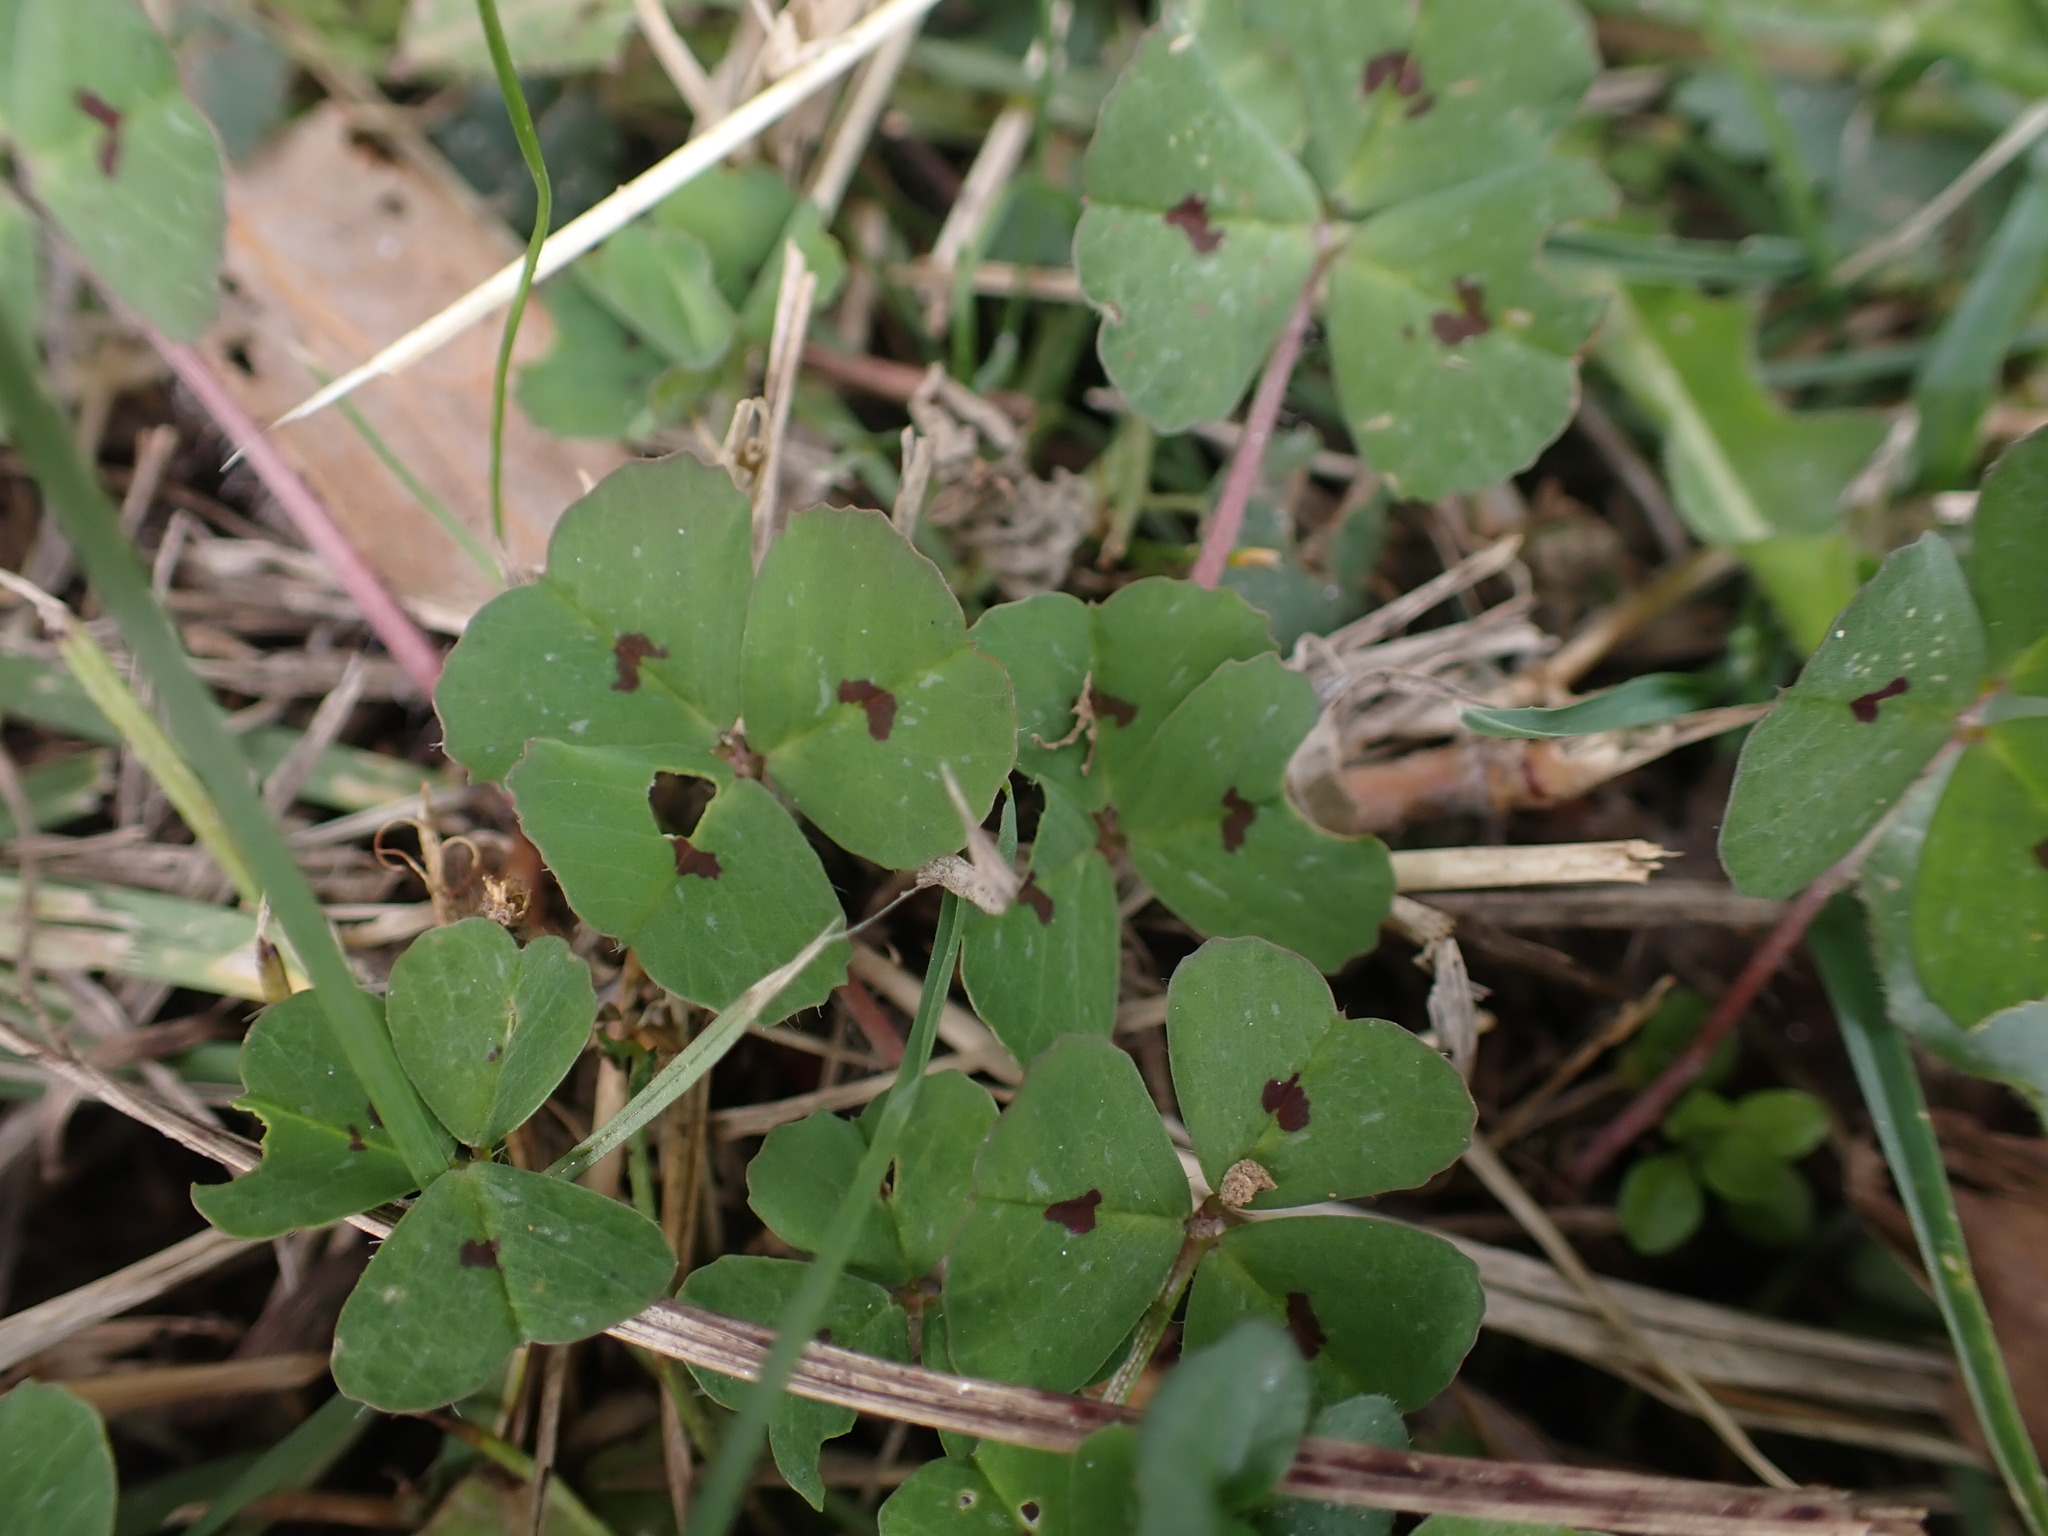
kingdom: Plantae
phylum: Tracheophyta
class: Magnoliopsida
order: Fabales
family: Fabaceae
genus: Medicago
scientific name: Medicago arabica
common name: Spotted medick
